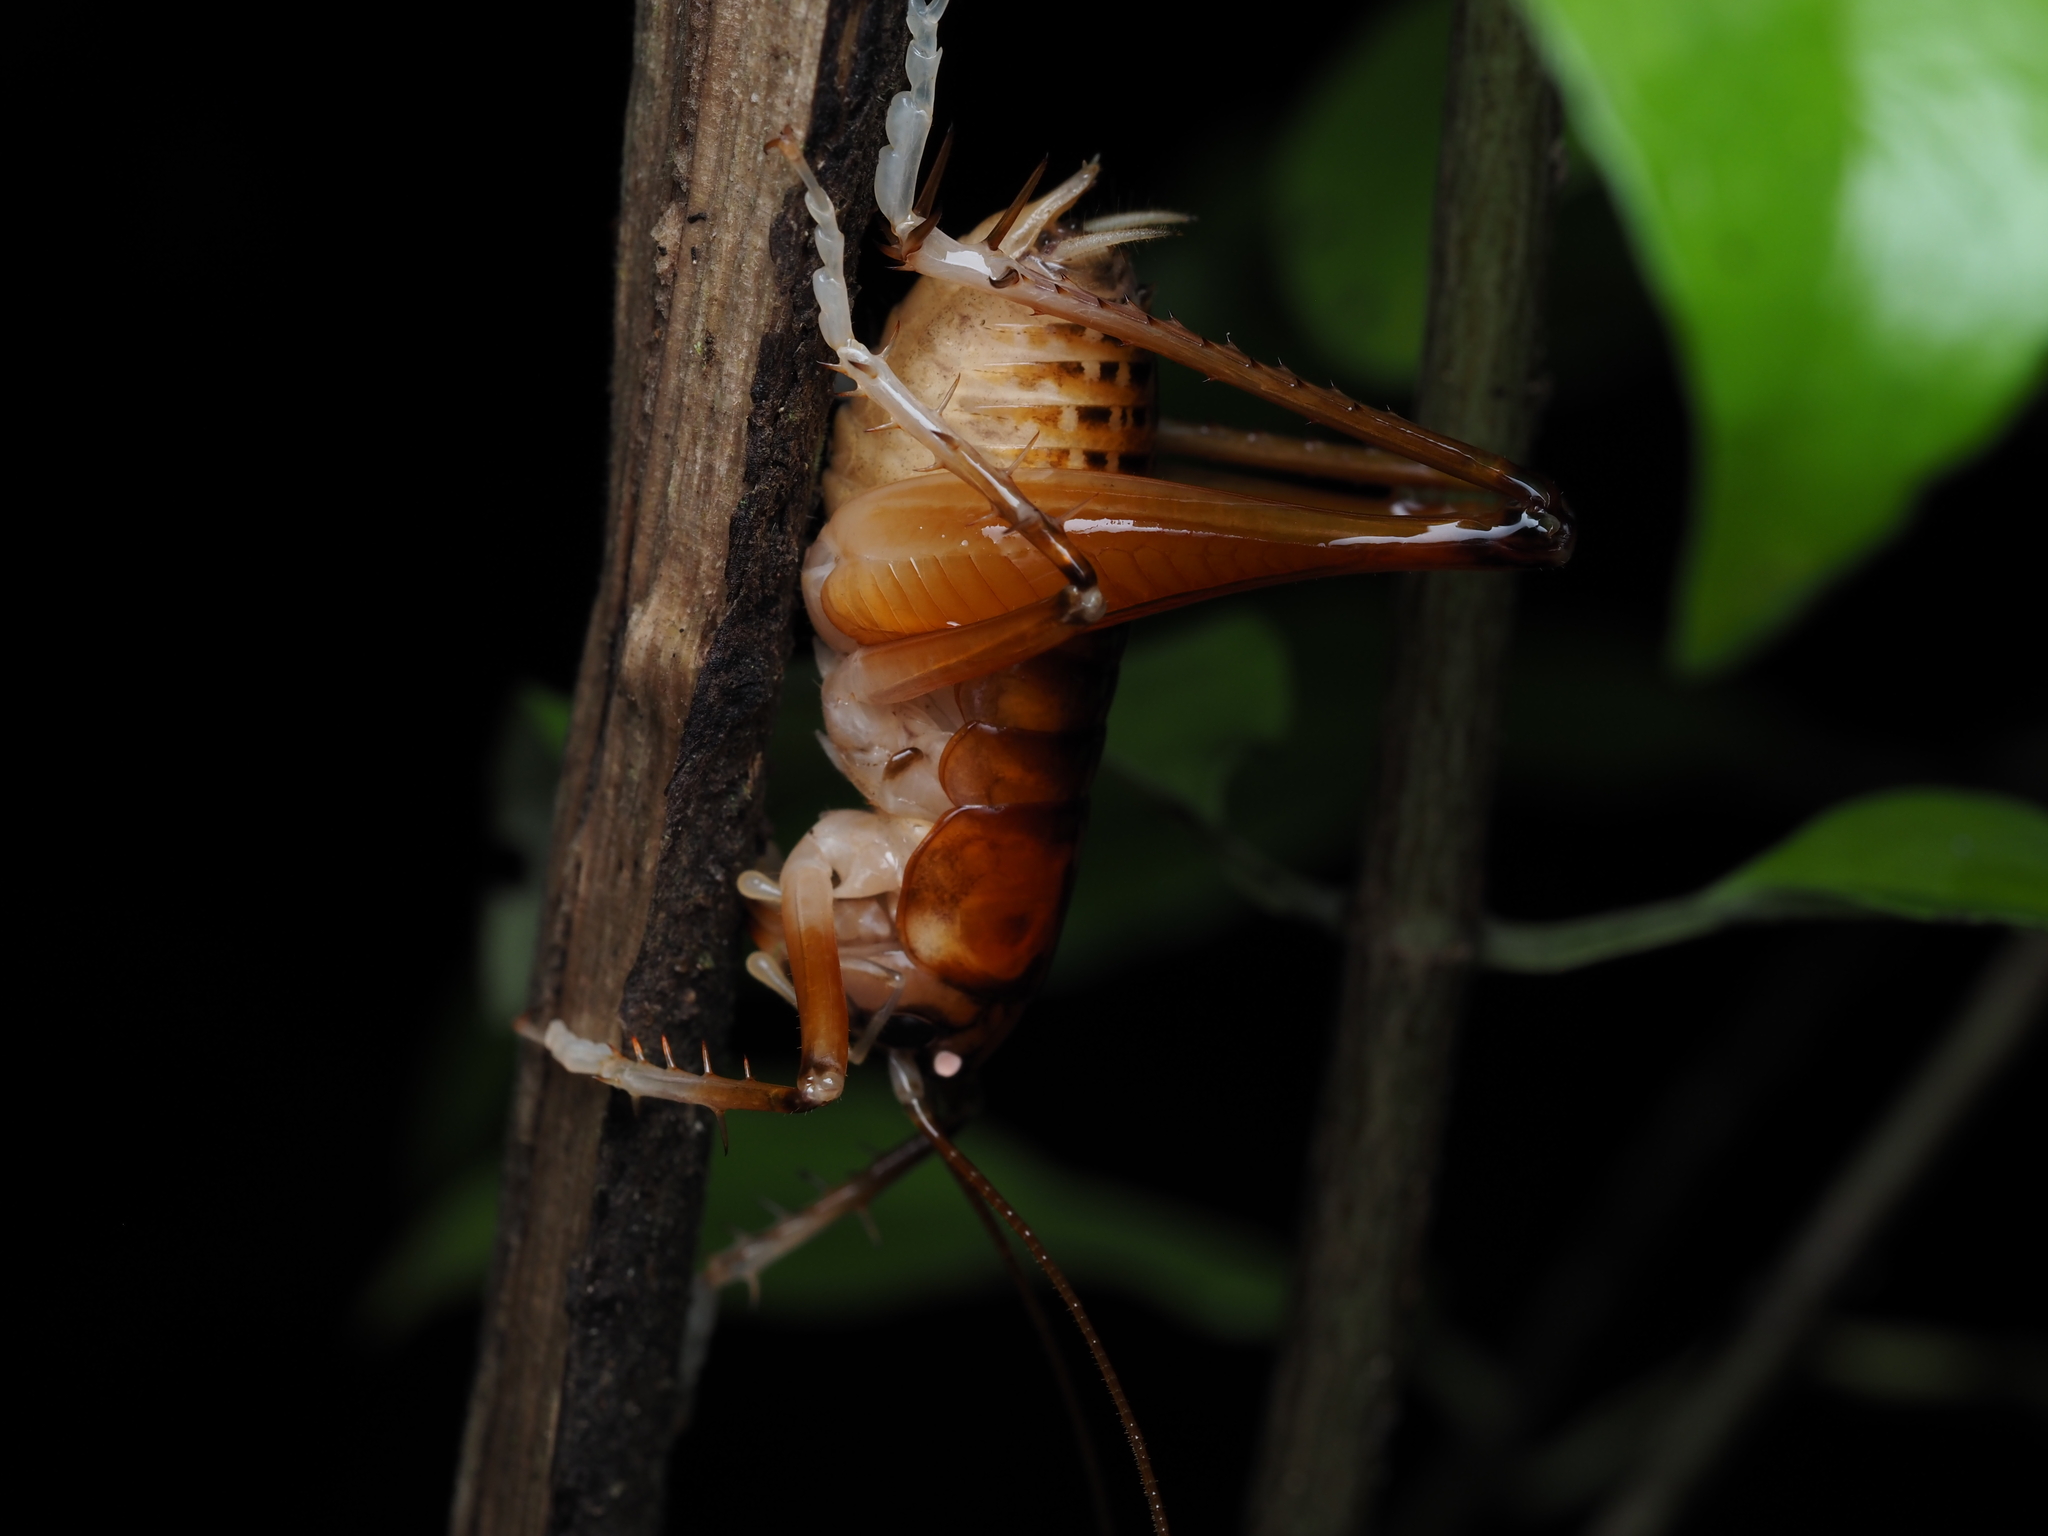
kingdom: Animalia
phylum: Arthropoda
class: Insecta
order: Orthoptera
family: Anostostomatidae
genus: Hemiandrus
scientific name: Hemiandrus jacinda
